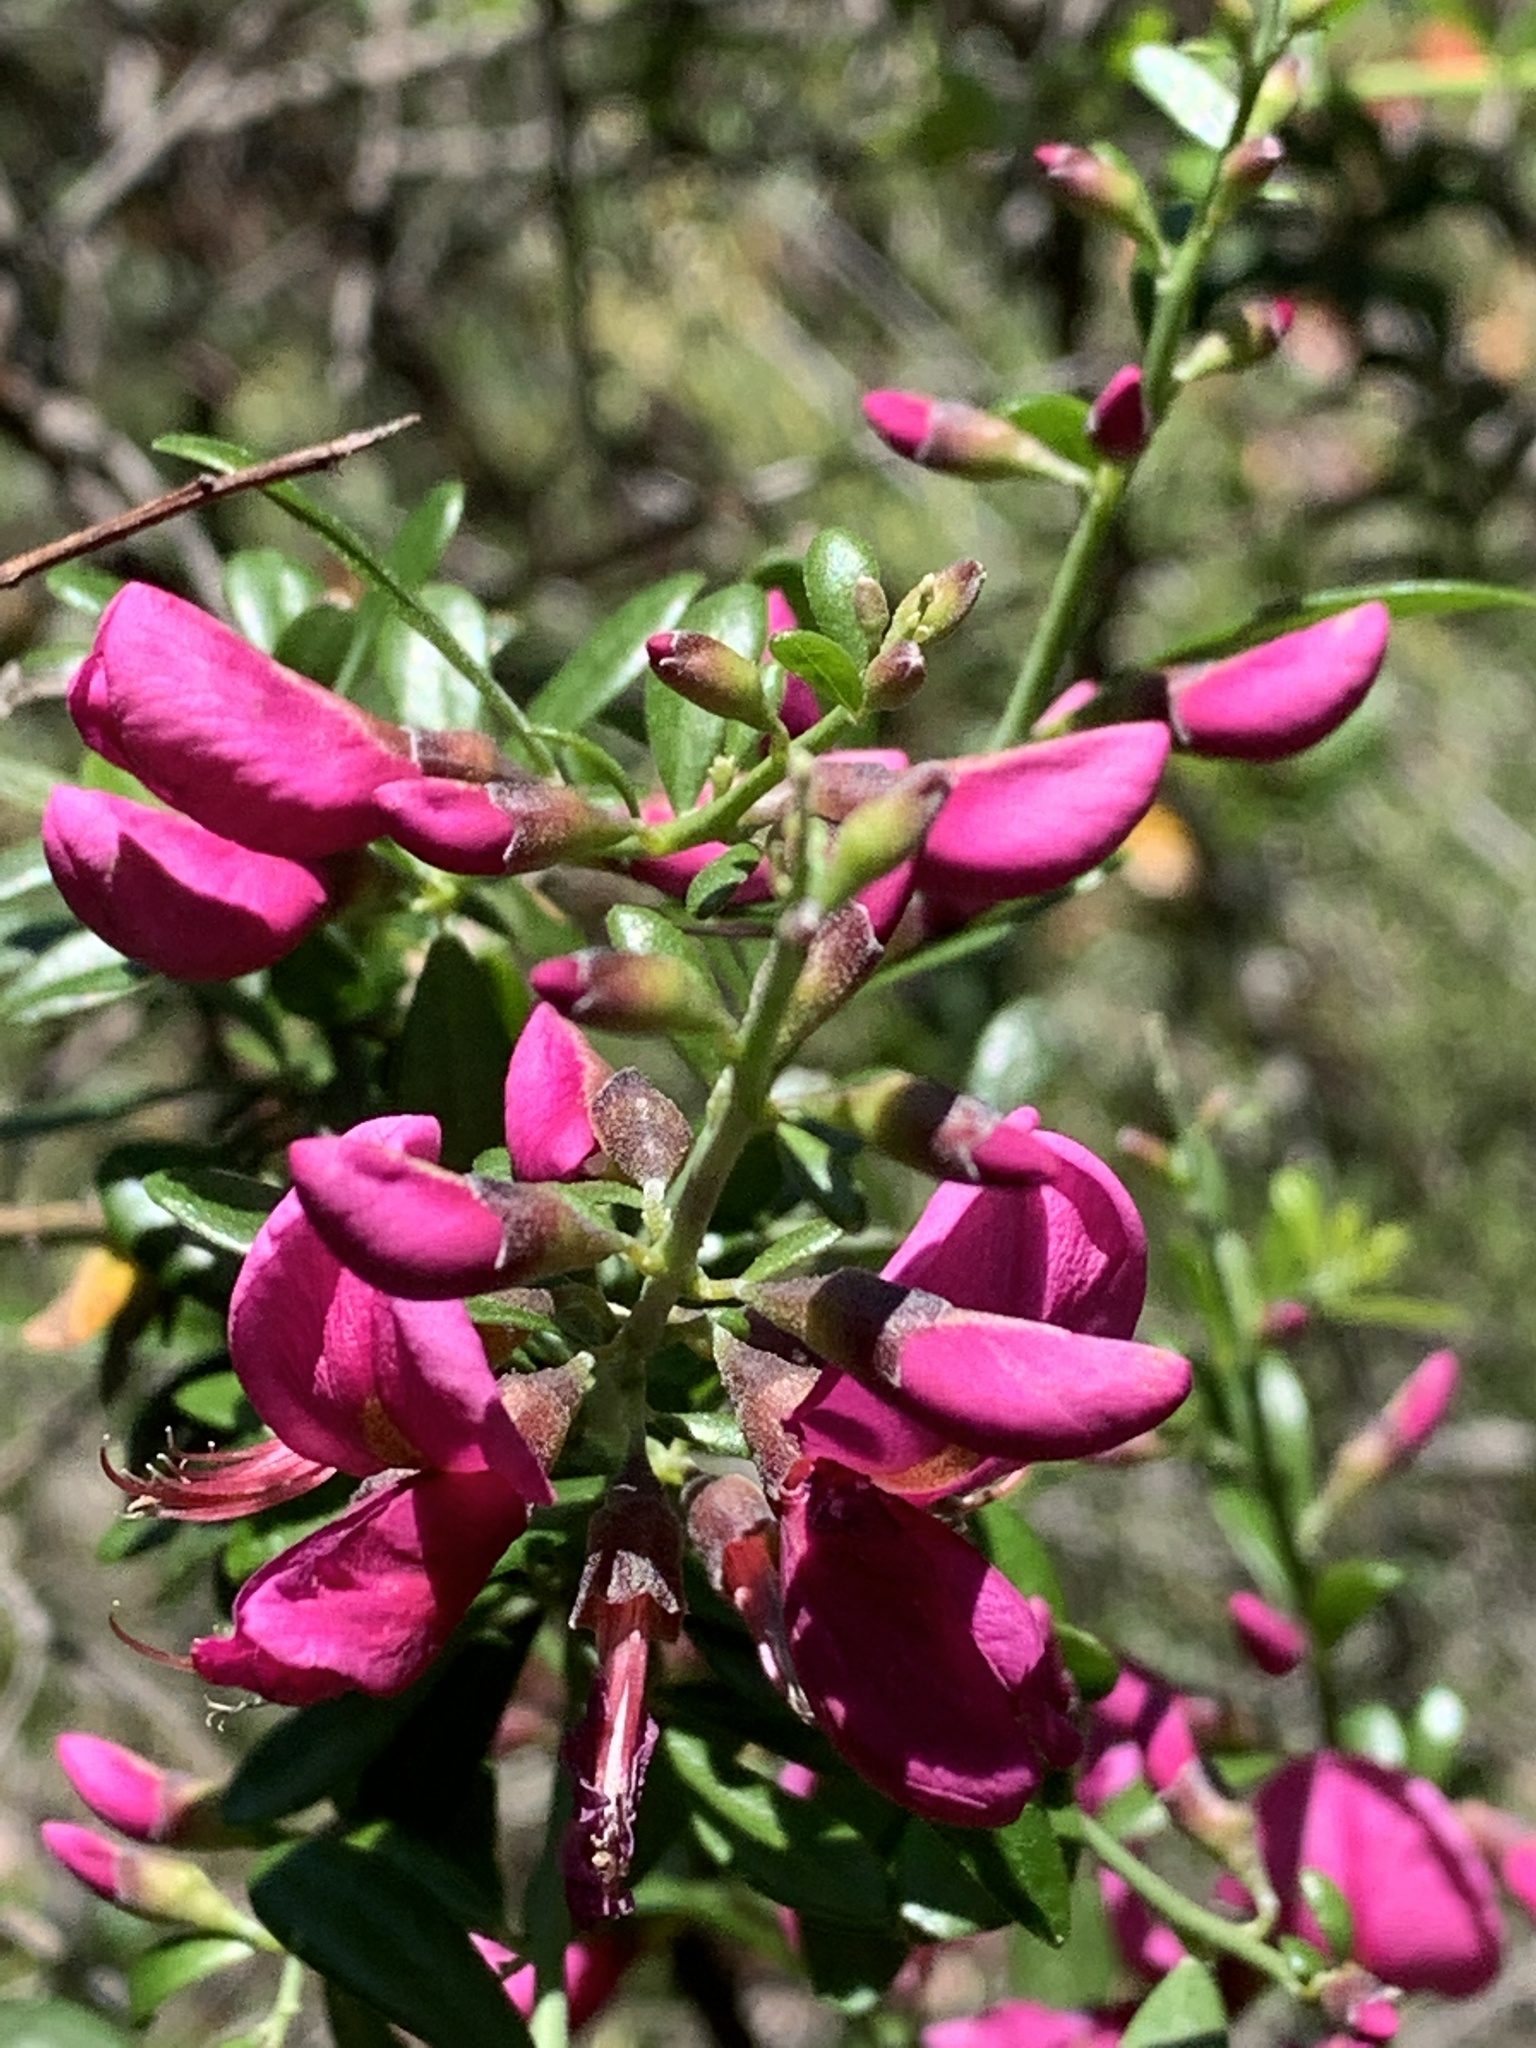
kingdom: Plantae
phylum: Tracheophyta
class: Magnoliopsida
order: Fabales
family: Fabaceae
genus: Pickeringia
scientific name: Pickeringia montana
